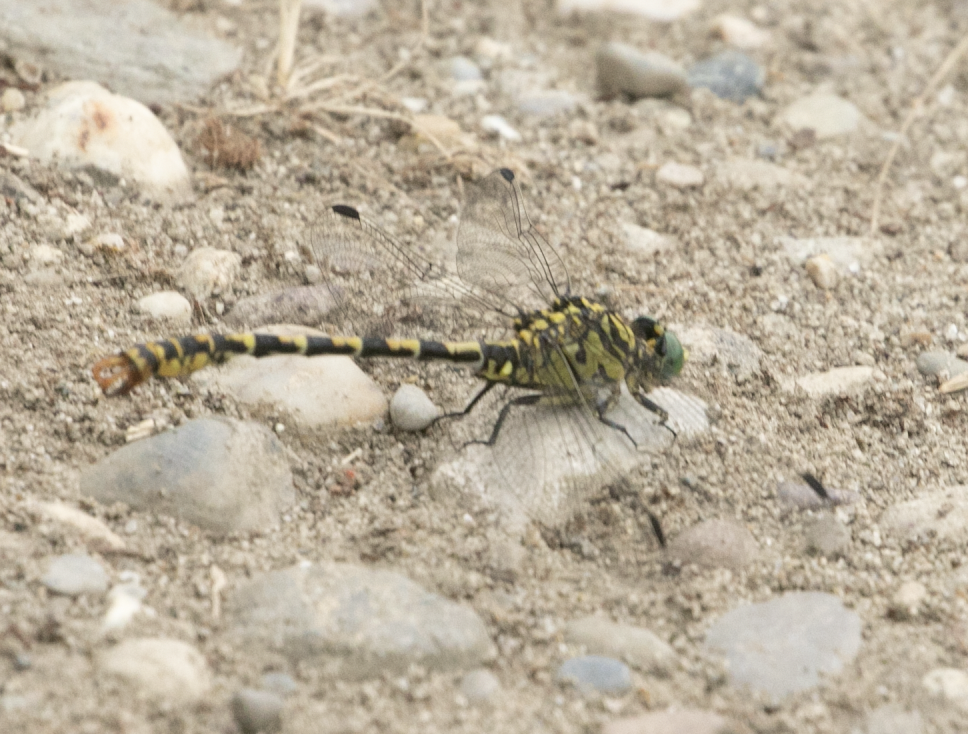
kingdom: Animalia
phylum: Arthropoda
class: Insecta
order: Odonata
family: Gomphidae
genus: Onychogomphus
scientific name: Onychogomphus forcipatus
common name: Small pincertail
